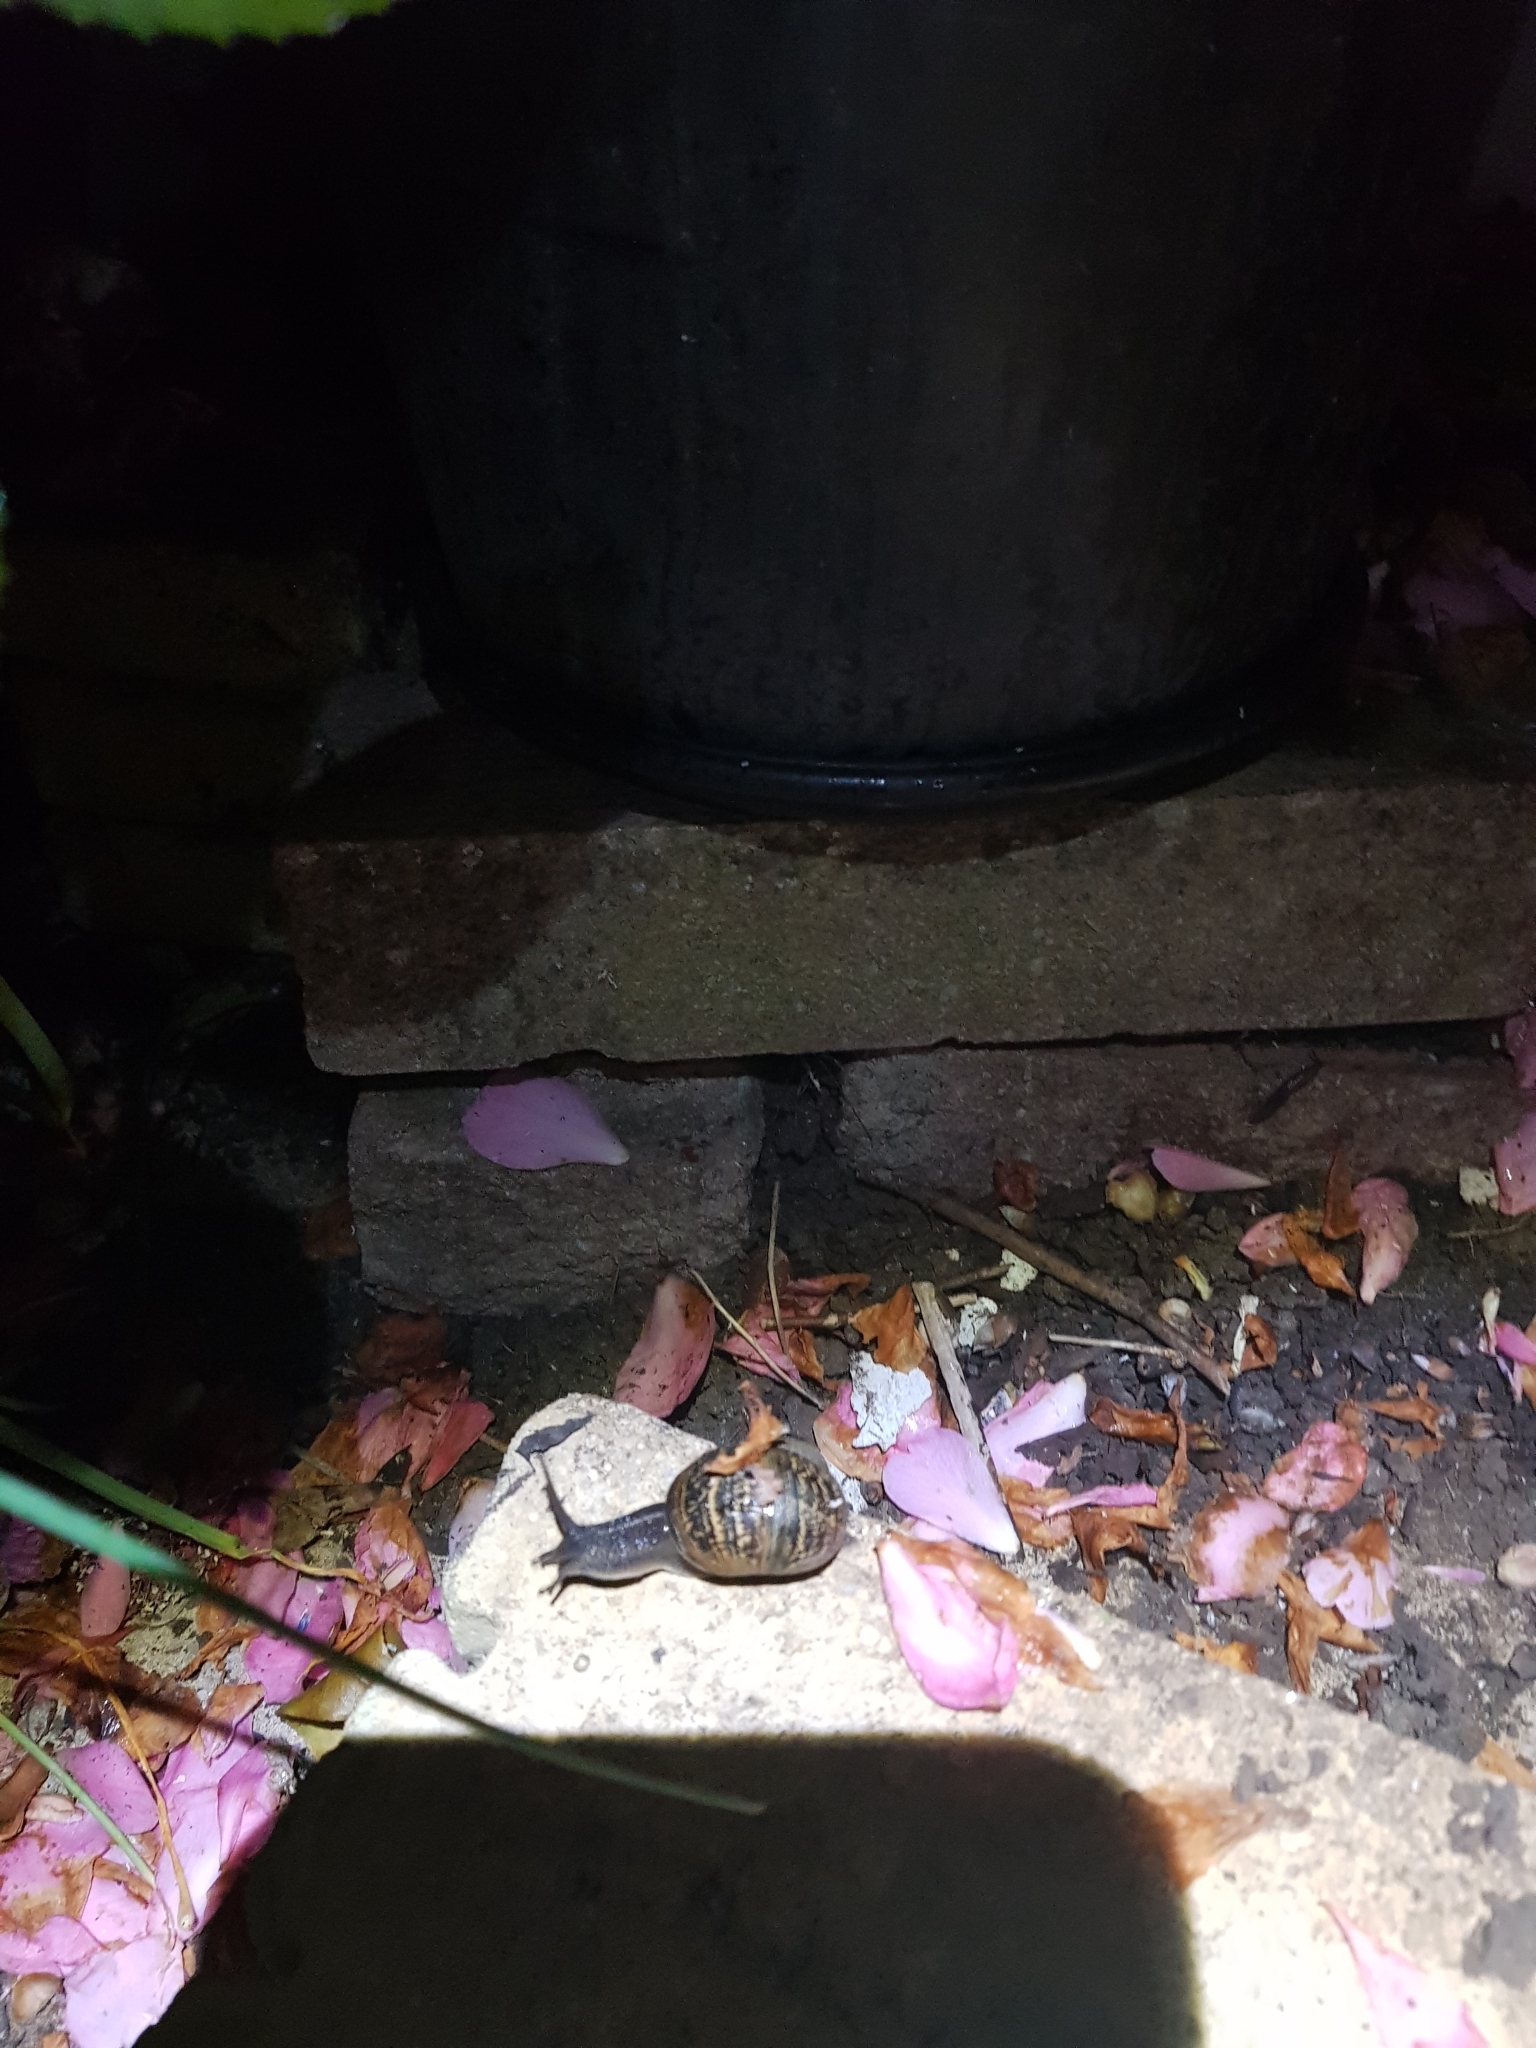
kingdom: Animalia
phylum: Mollusca
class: Gastropoda
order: Stylommatophora
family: Helicidae
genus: Cornu
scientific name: Cornu aspersum
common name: Brown garden snail
